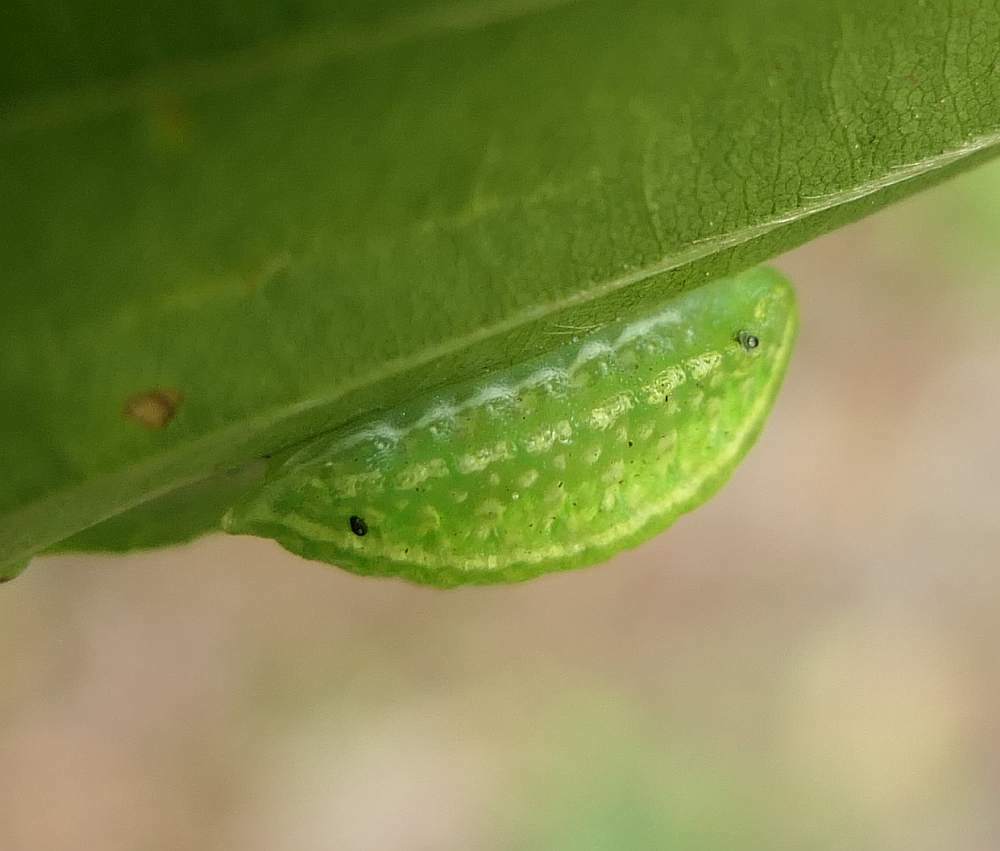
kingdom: Animalia
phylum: Arthropoda
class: Insecta
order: Lepidoptera
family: Limacodidae
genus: Lithacodes
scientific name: Lithacodes fasciola
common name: Yellow-shouldered slug moth
